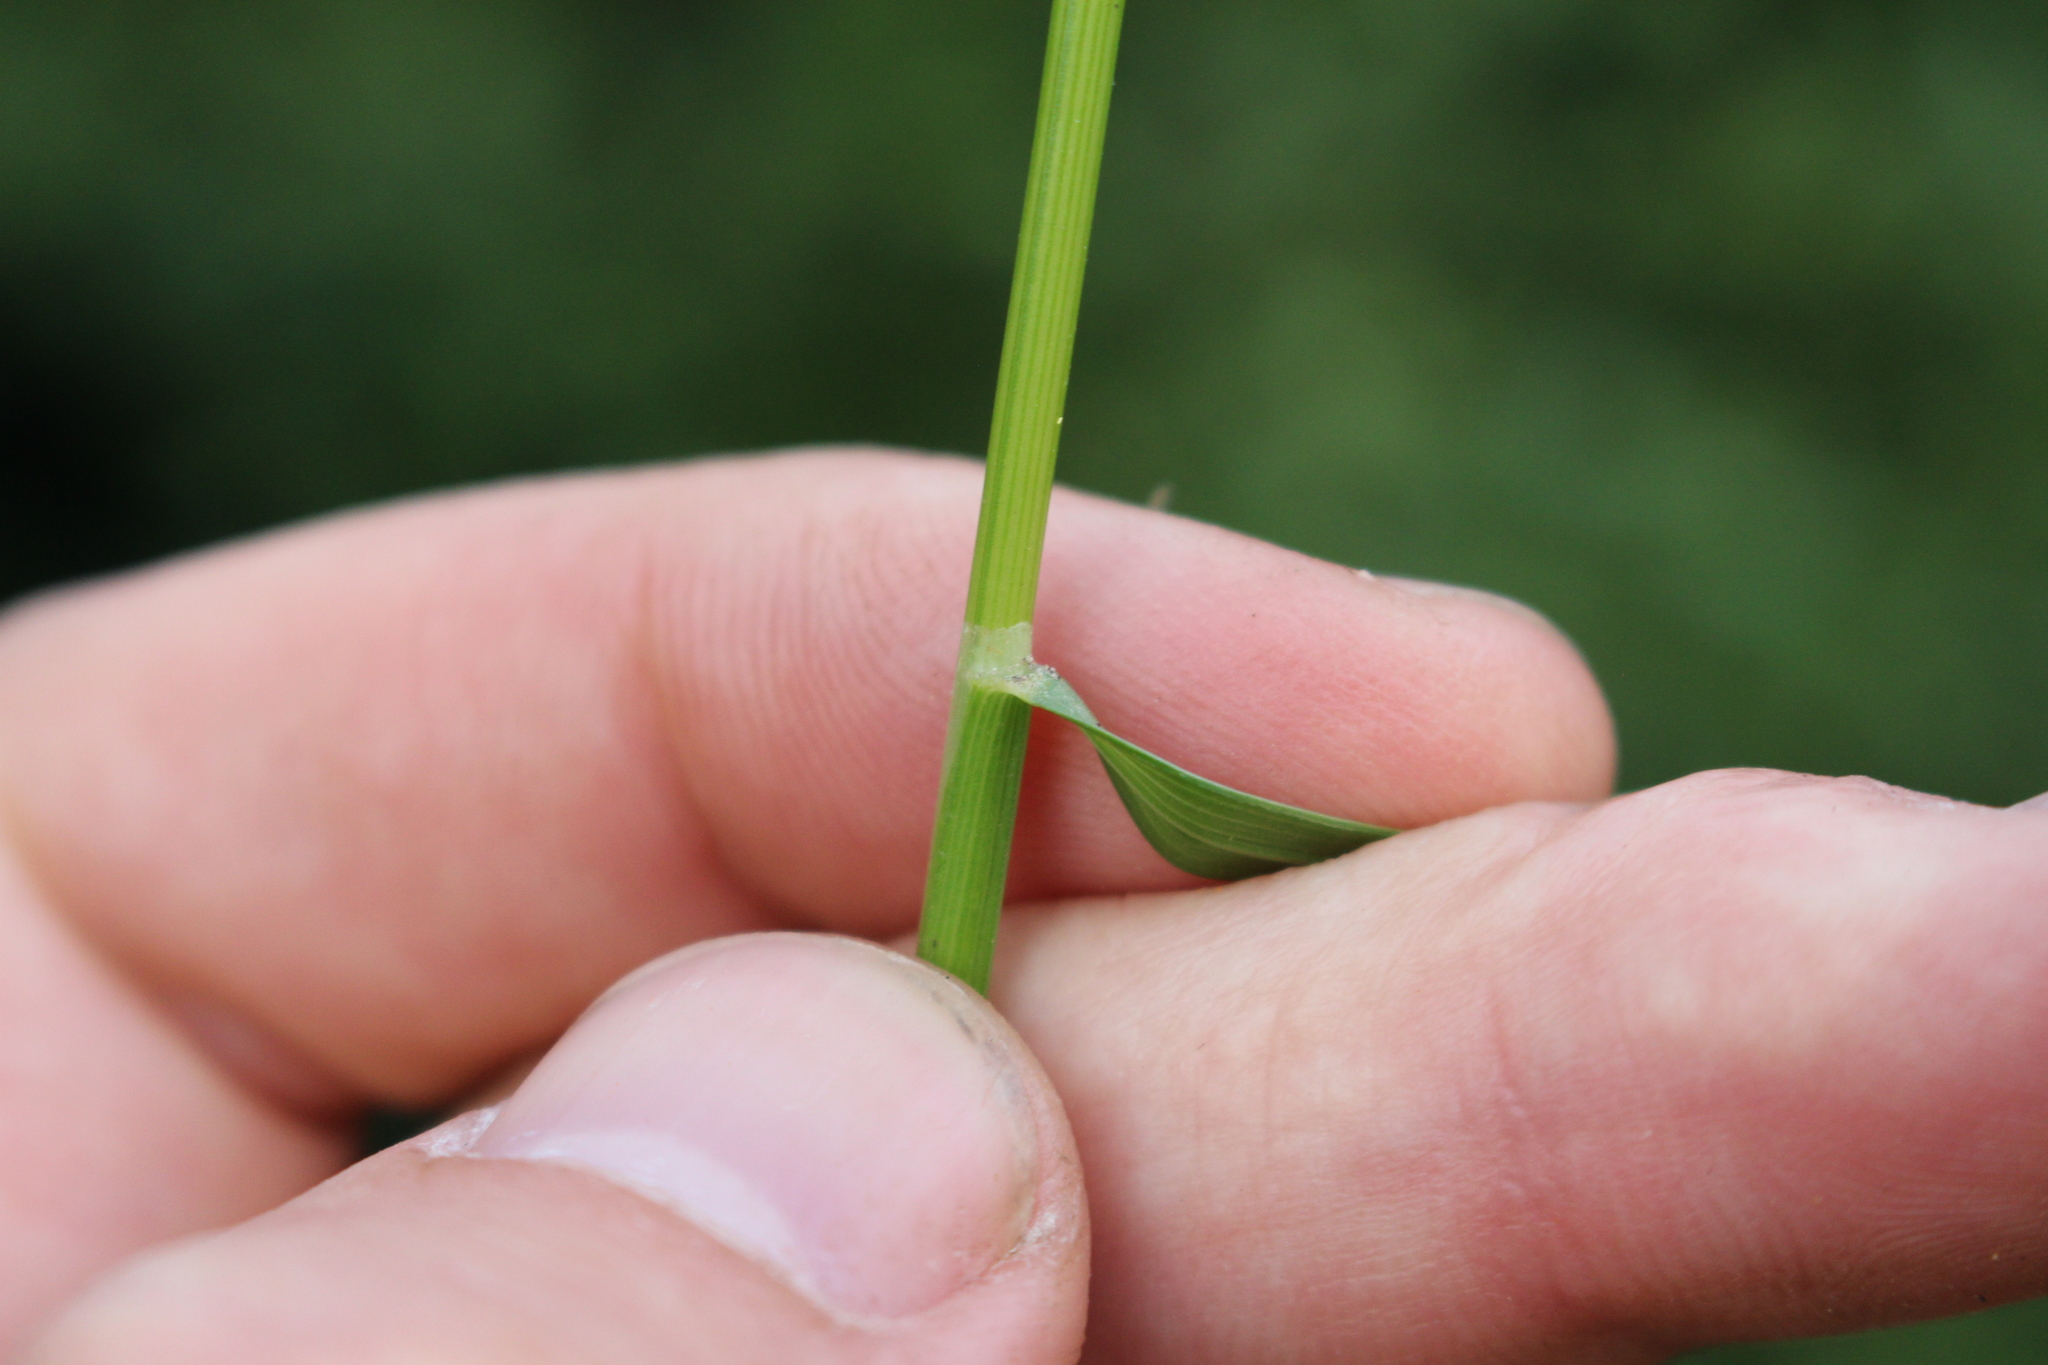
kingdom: Plantae
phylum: Tracheophyta
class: Liliopsida
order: Poales
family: Poaceae
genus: Cynosurus
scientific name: Cynosurus cristatus
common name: Crested dog's-tail
